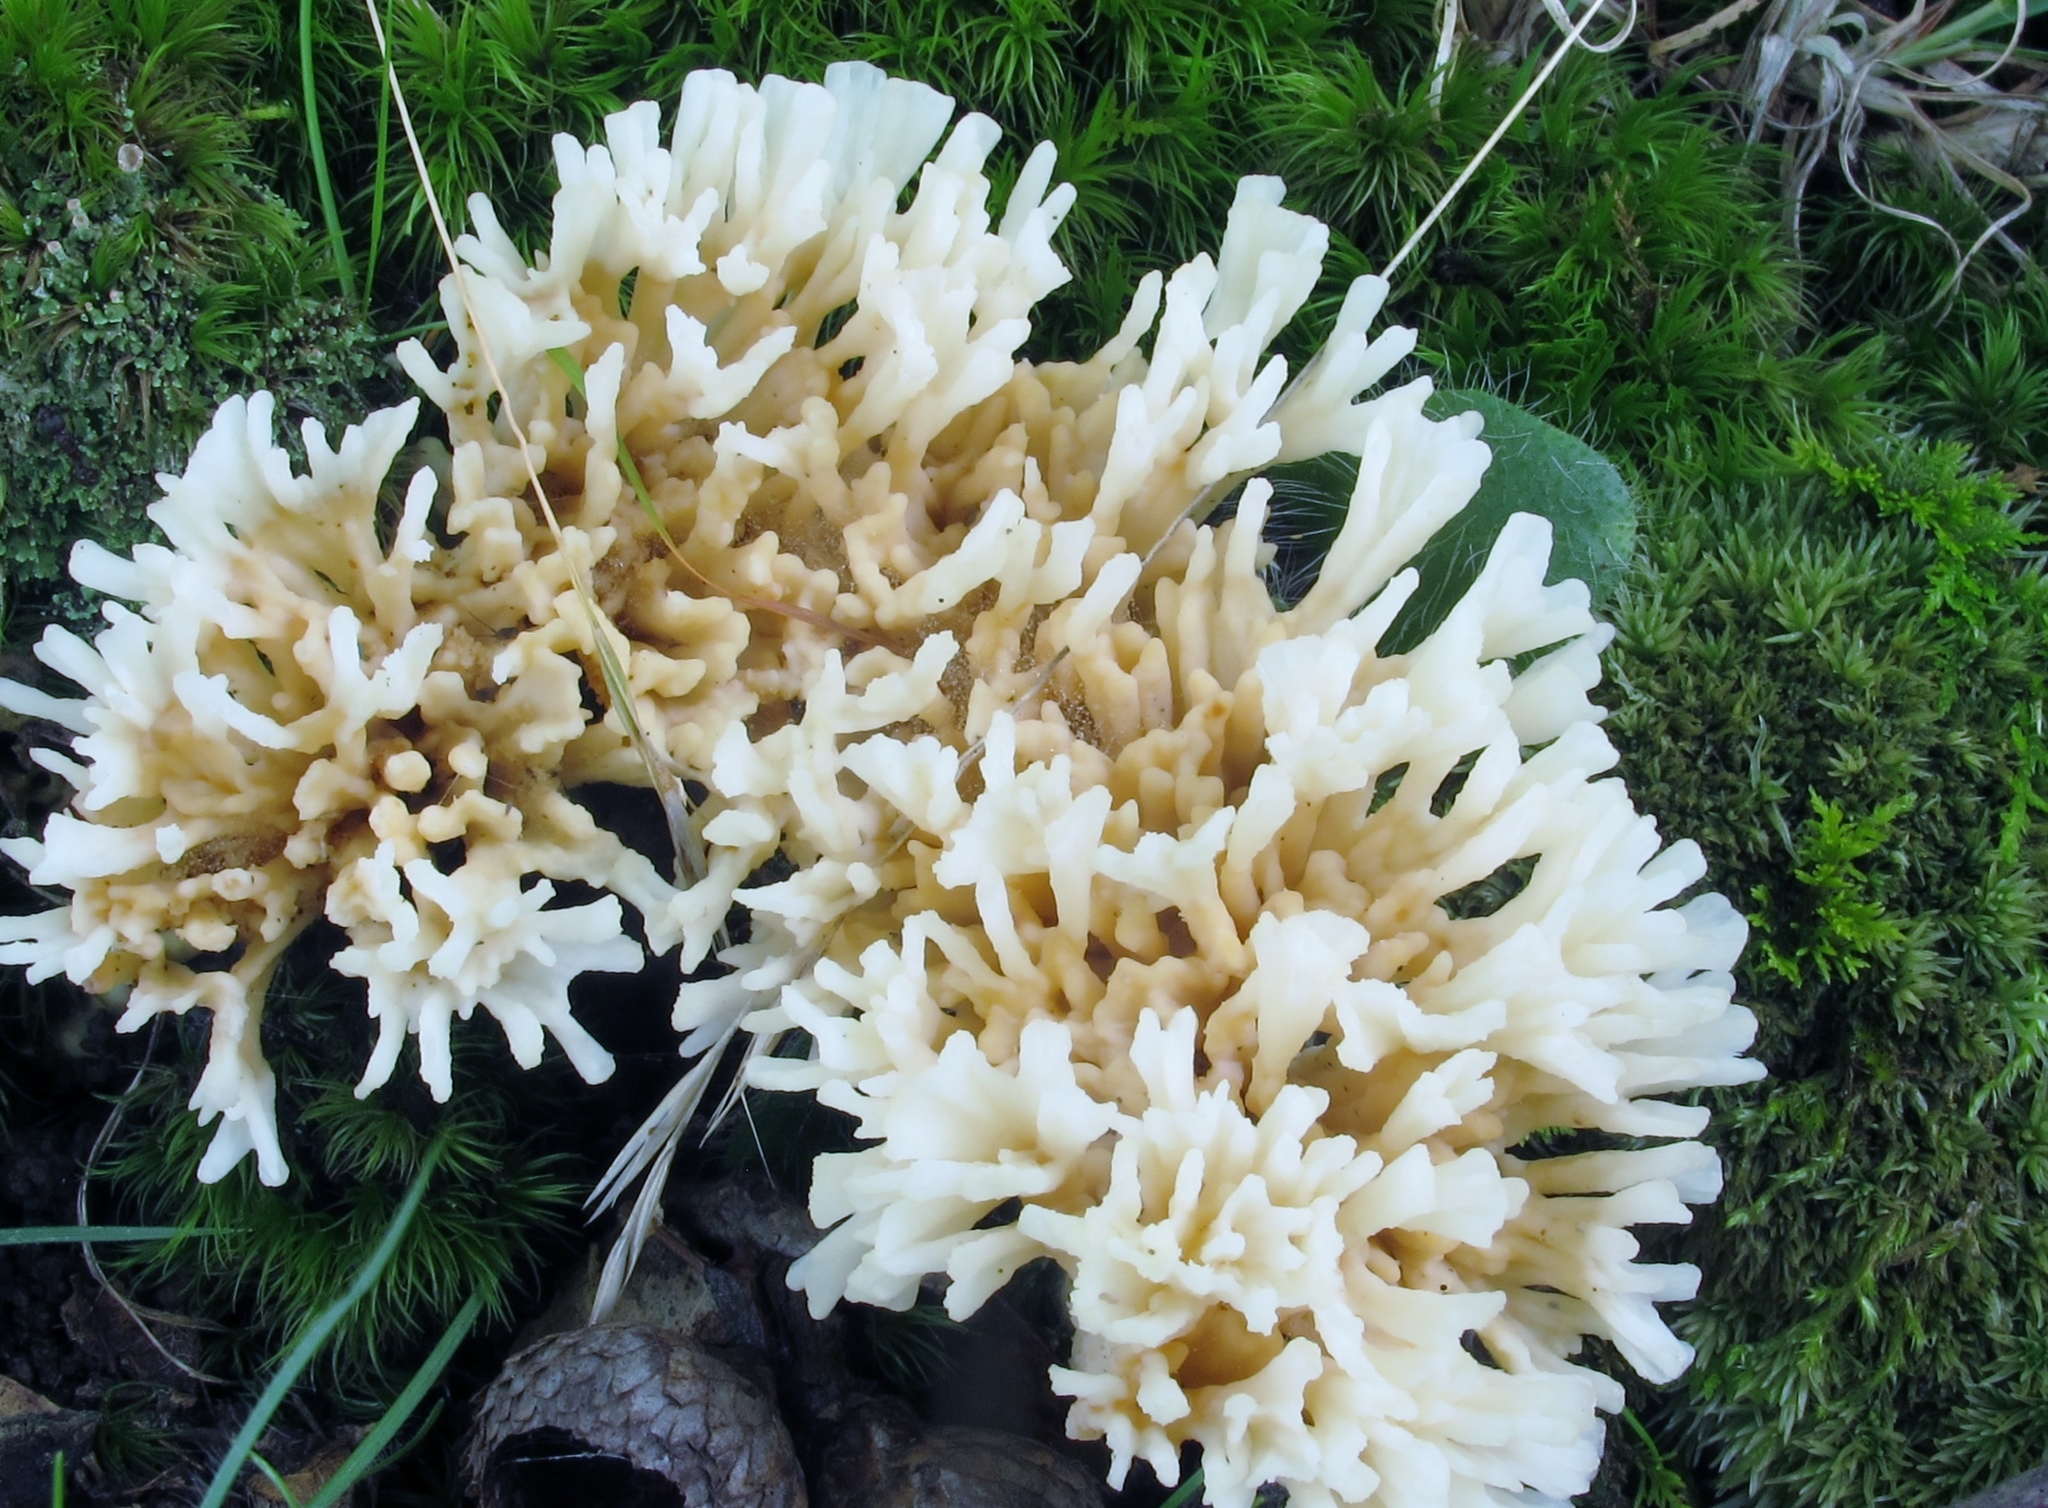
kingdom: Fungi
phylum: Basidiomycota
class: Agaricomycetes
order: Sebacinales
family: Sebacinaceae
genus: Sebacina
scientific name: Sebacina schweinitzii
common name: Jellied false coral fungus
